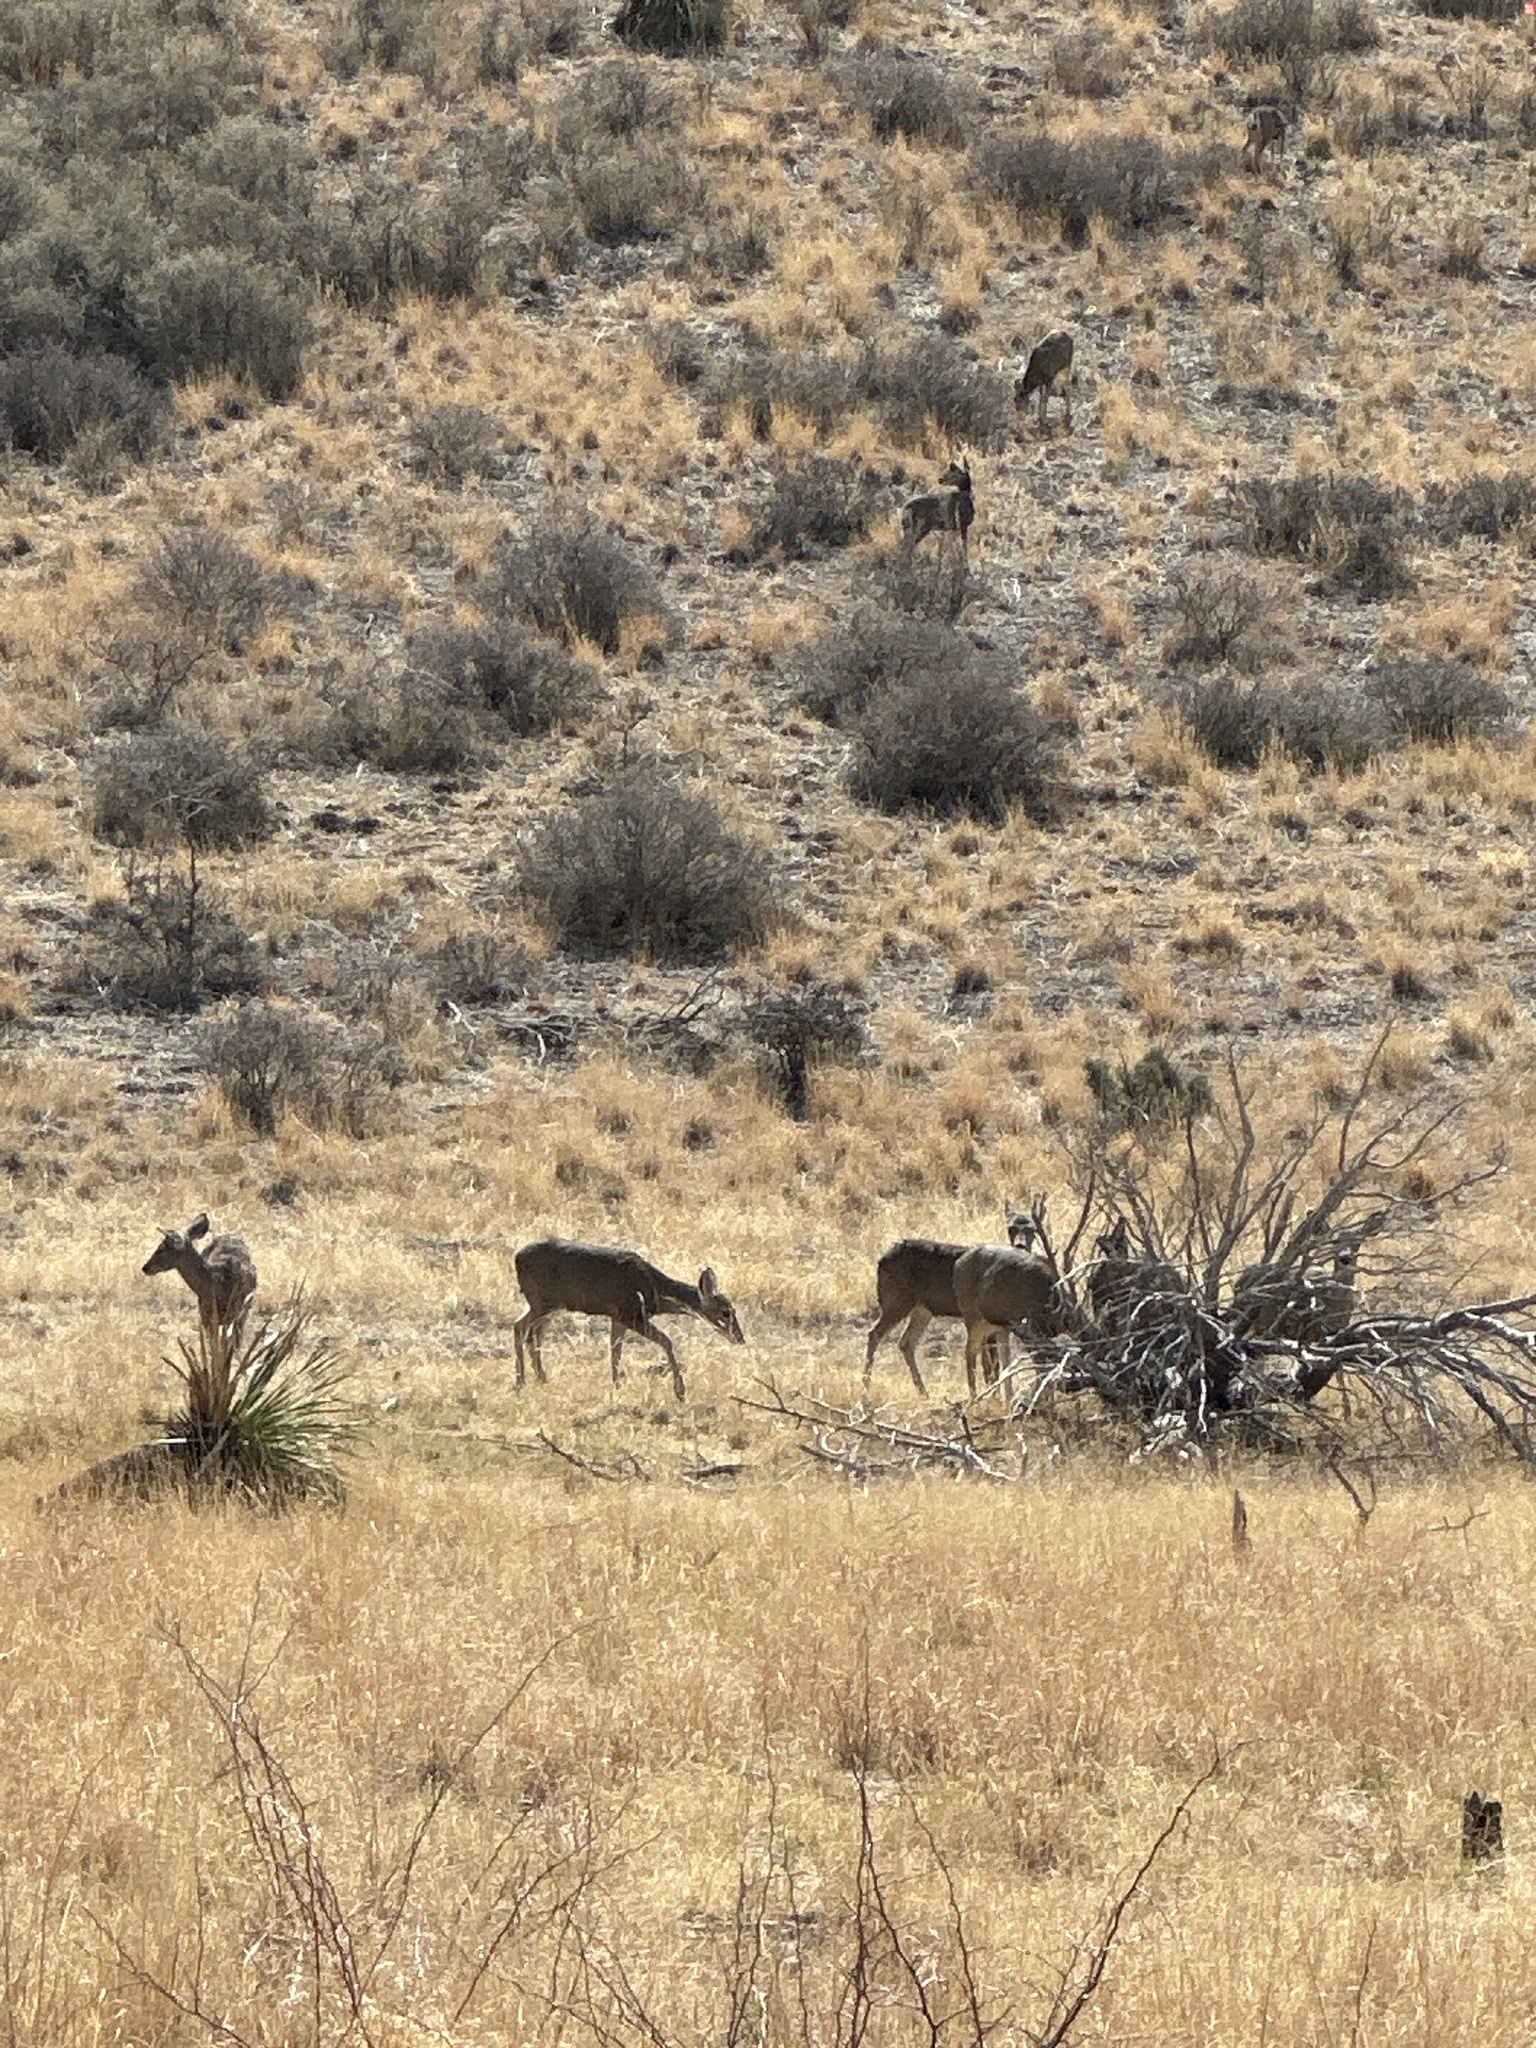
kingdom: Animalia
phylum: Chordata
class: Mammalia
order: Artiodactyla
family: Cervidae
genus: Odocoileus
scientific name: Odocoileus hemionus
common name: Mule deer
